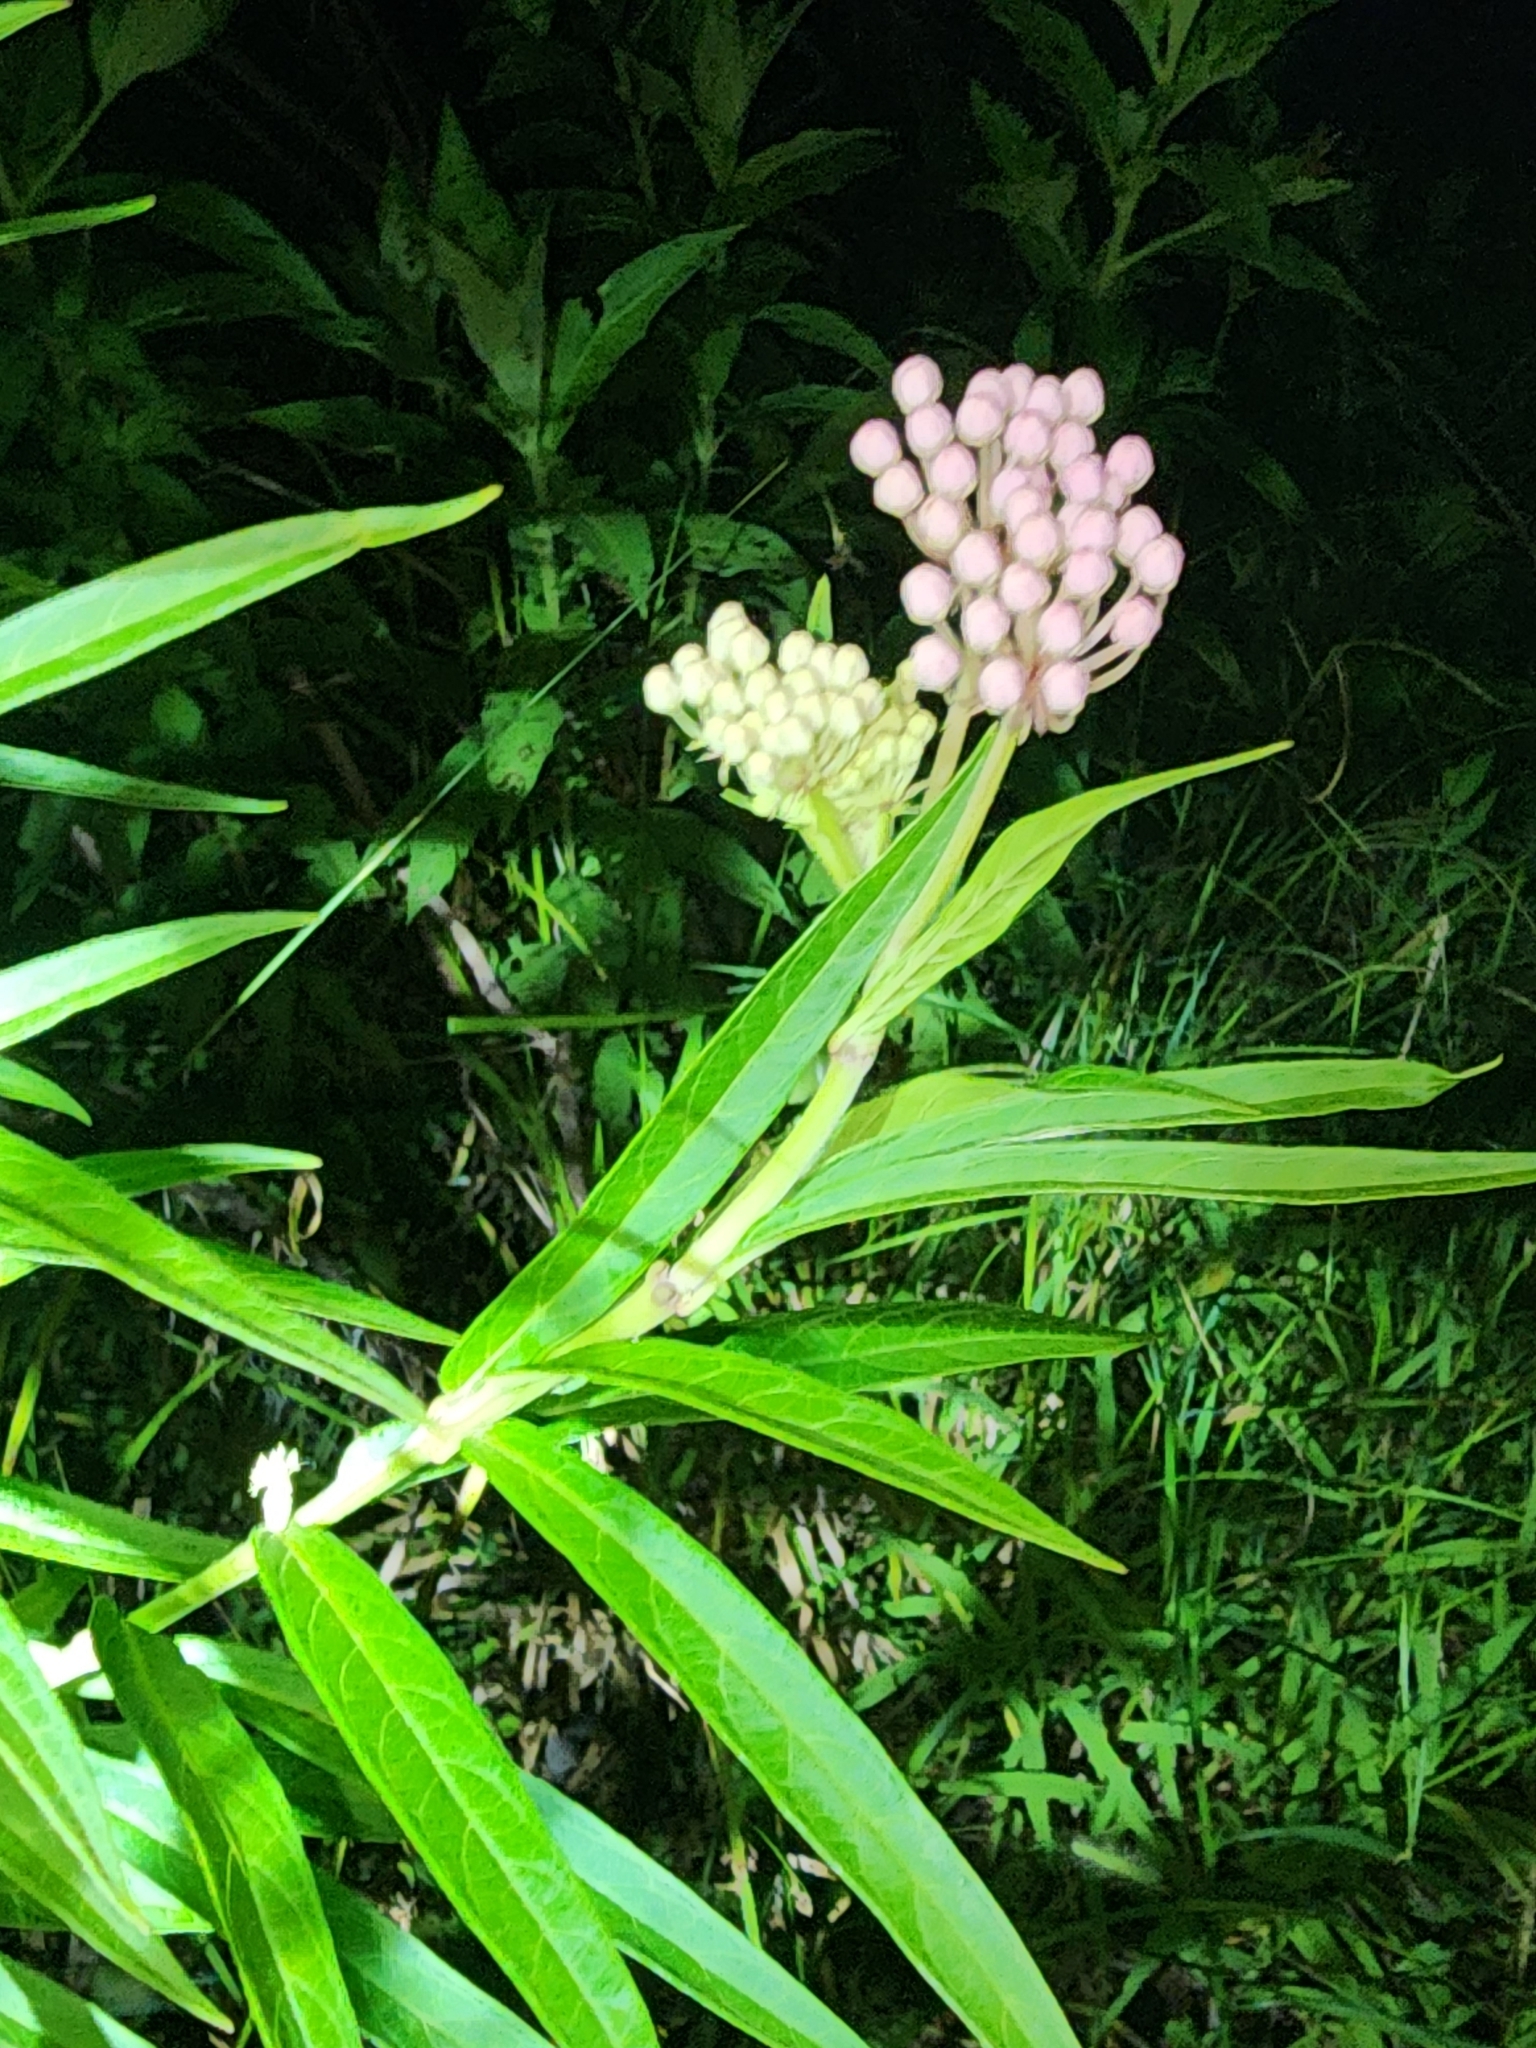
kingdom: Plantae
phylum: Tracheophyta
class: Magnoliopsida
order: Gentianales
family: Apocynaceae
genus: Asclepias
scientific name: Asclepias incarnata
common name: Swamp milkweed
